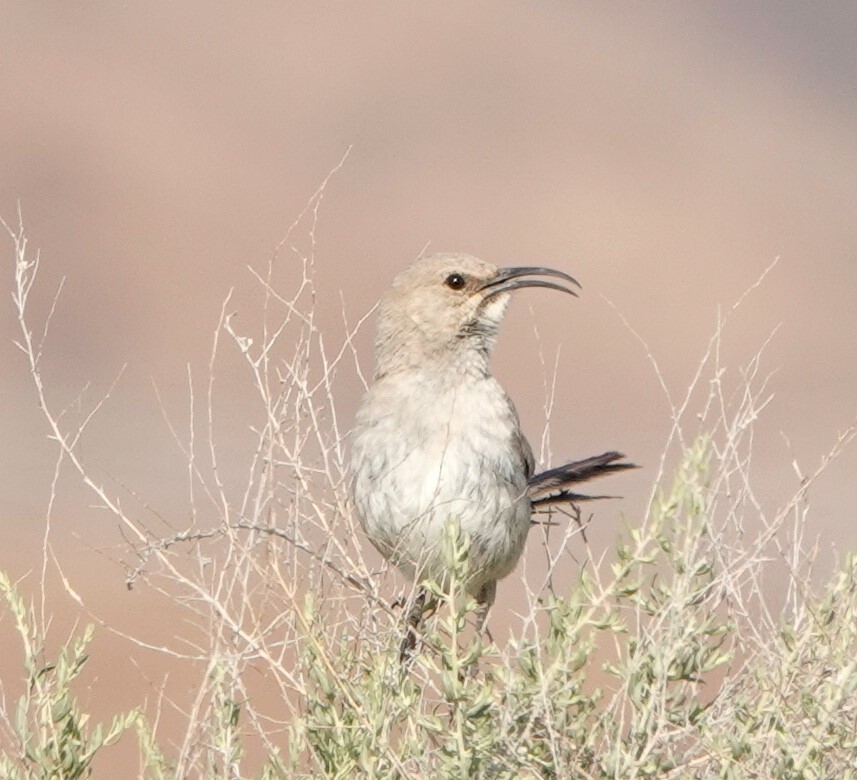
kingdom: Animalia
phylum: Chordata
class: Aves
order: Passeriformes
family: Mimidae
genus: Toxostoma
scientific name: Toxostoma lecontei
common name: Le conte's thrasher
